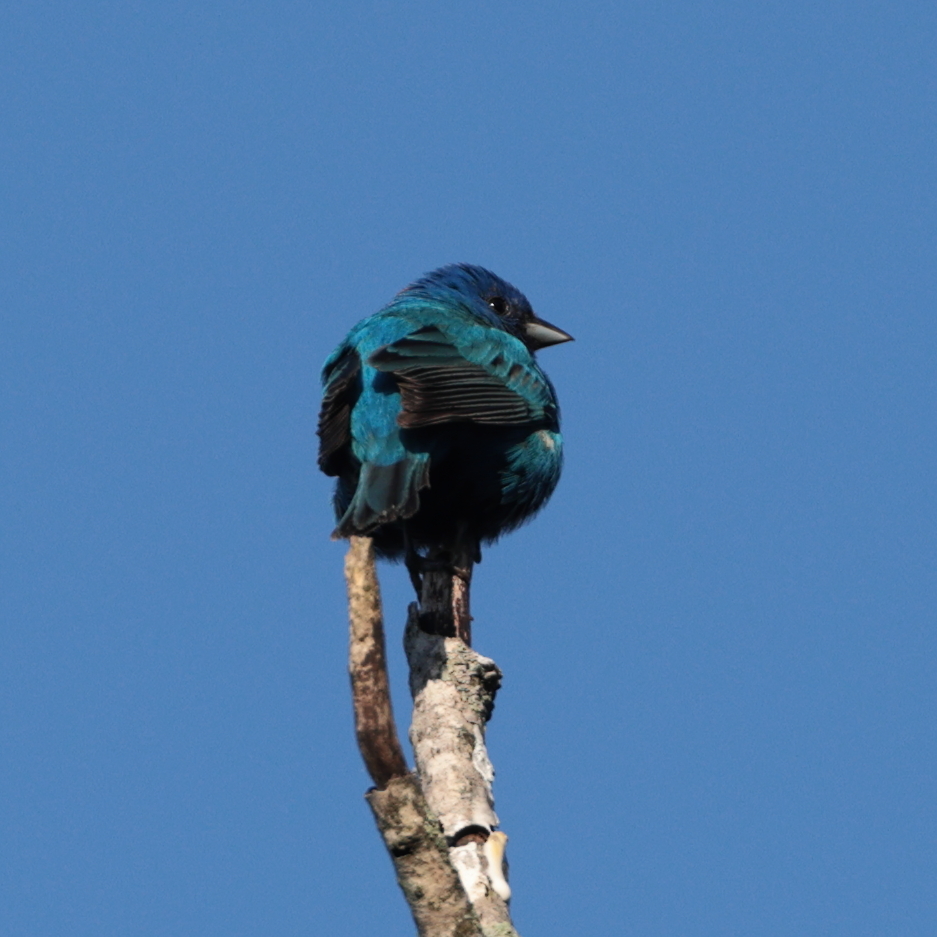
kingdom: Animalia
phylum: Chordata
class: Aves
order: Passeriformes
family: Cardinalidae
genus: Passerina
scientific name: Passerina cyanea
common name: Indigo bunting
